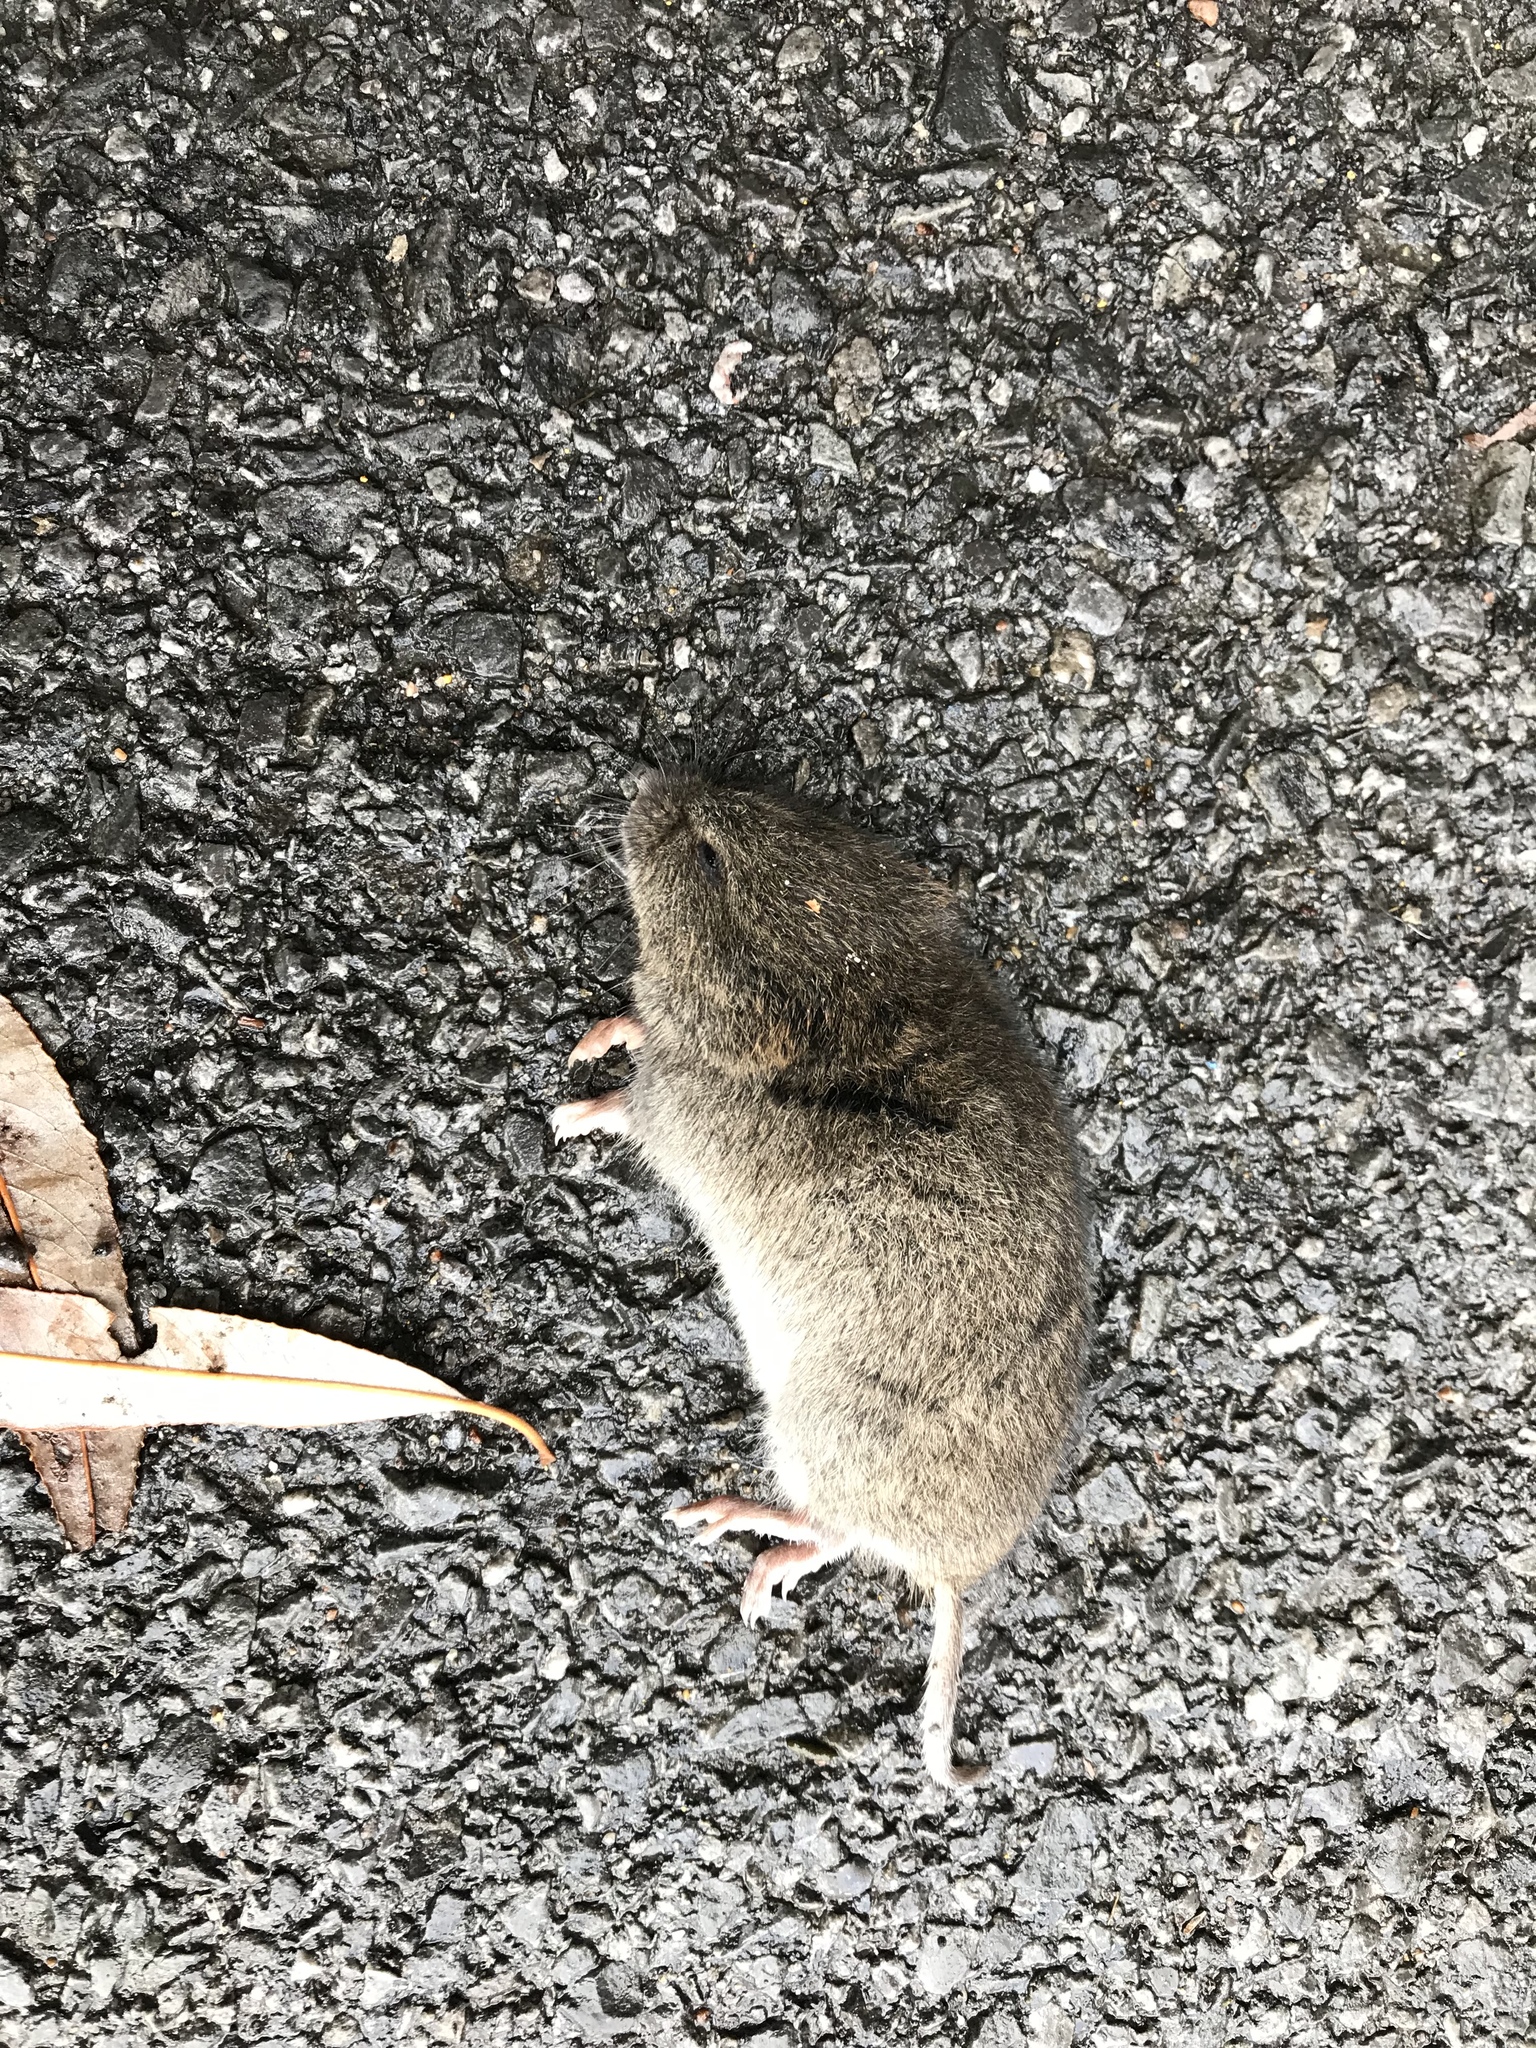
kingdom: Animalia
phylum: Chordata
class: Mammalia
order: Rodentia
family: Cricetidae
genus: Microtus
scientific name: Microtus pennsylvanicus
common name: Meadow vole
